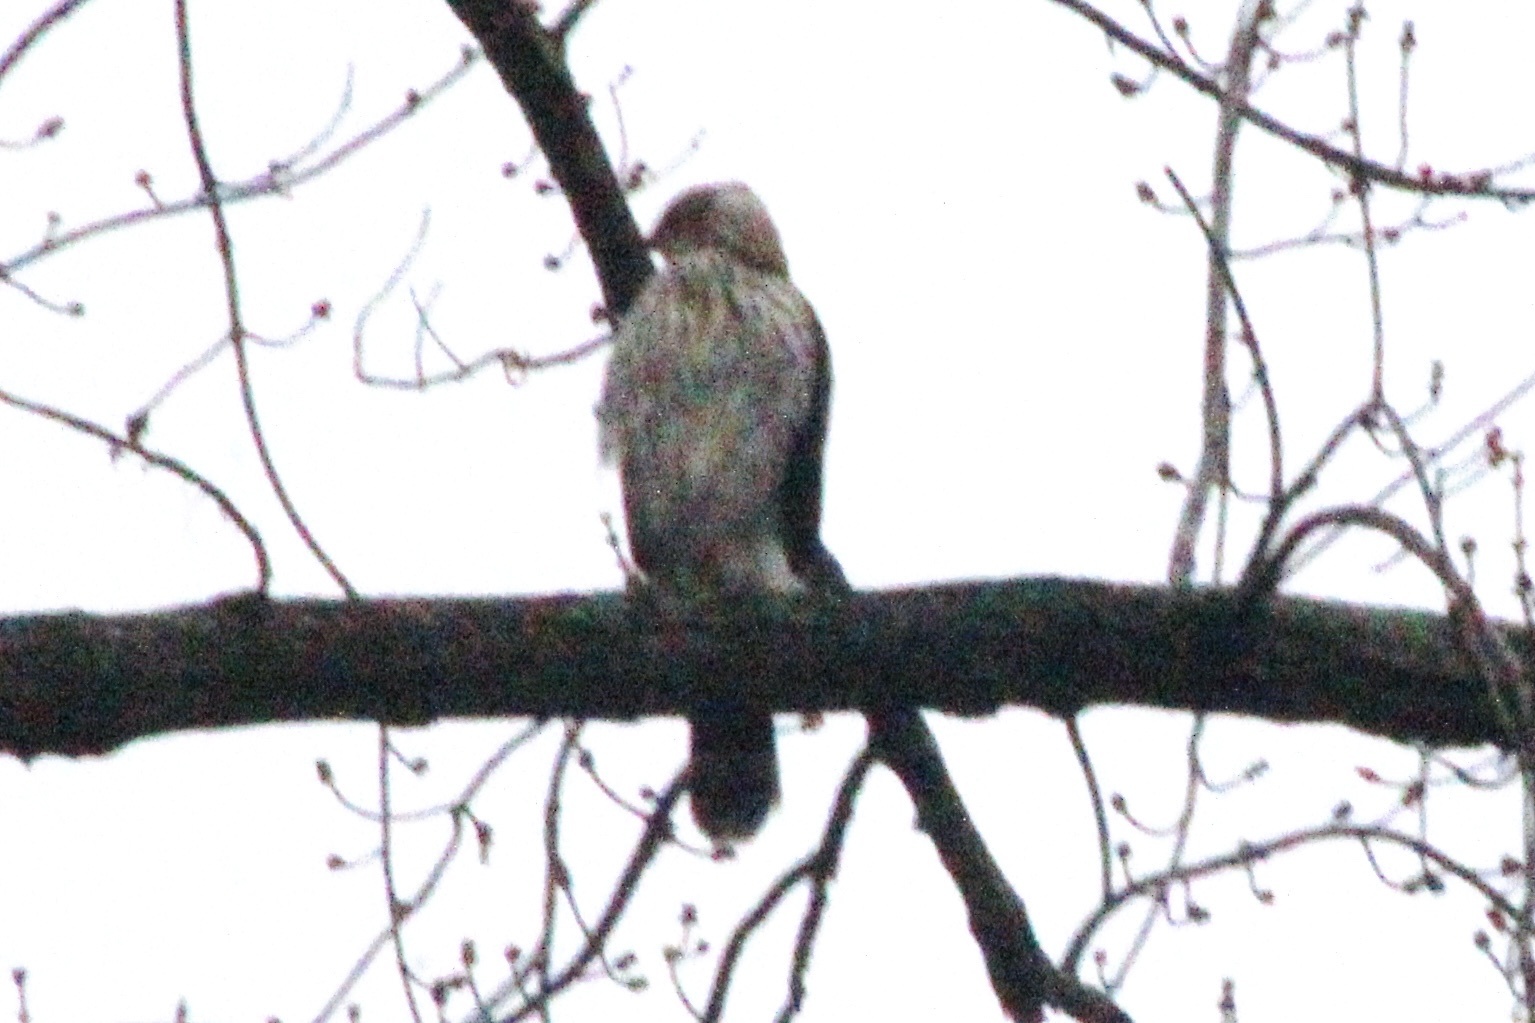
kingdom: Animalia
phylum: Chordata
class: Aves
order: Accipitriformes
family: Accipitridae
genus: Accipiter
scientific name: Accipiter cooperii
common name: Cooper's hawk
